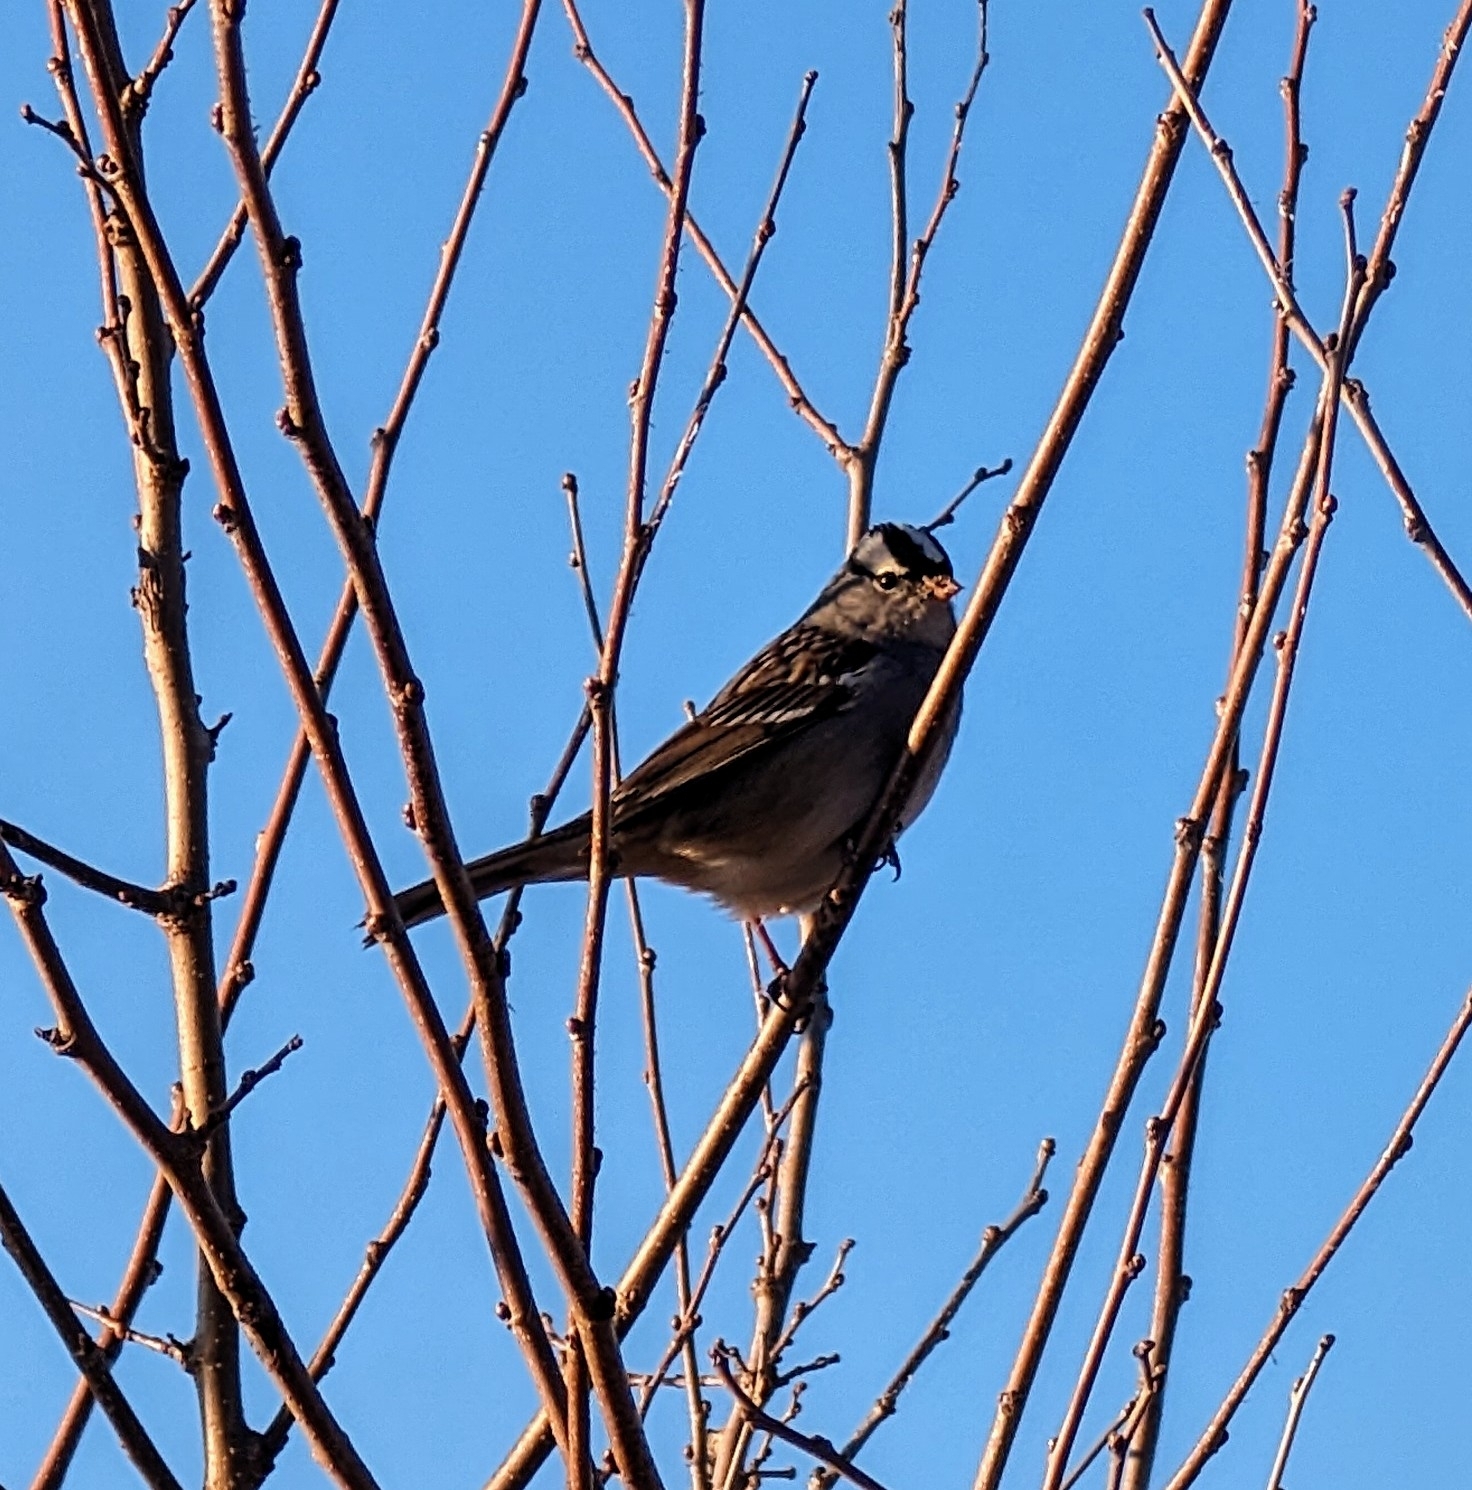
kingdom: Animalia
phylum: Chordata
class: Aves
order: Passeriformes
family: Passerellidae
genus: Zonotrichia
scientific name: Zonotrichia leucophrys
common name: White-crowned sparrow
